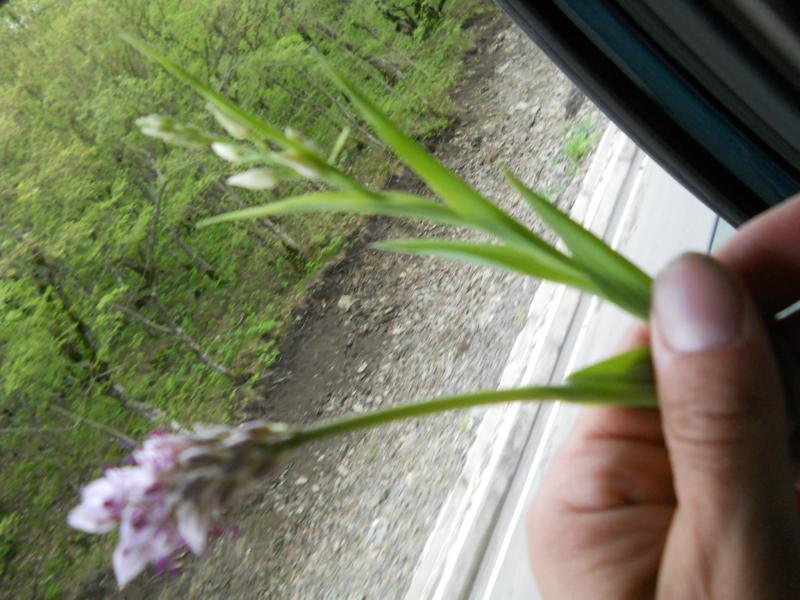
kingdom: Plantae
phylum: Tracheophyta
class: Liliopsida
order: Asparagales
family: Orchidaceae
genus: Orchis
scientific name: Orchis simia
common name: Monkey orchid
